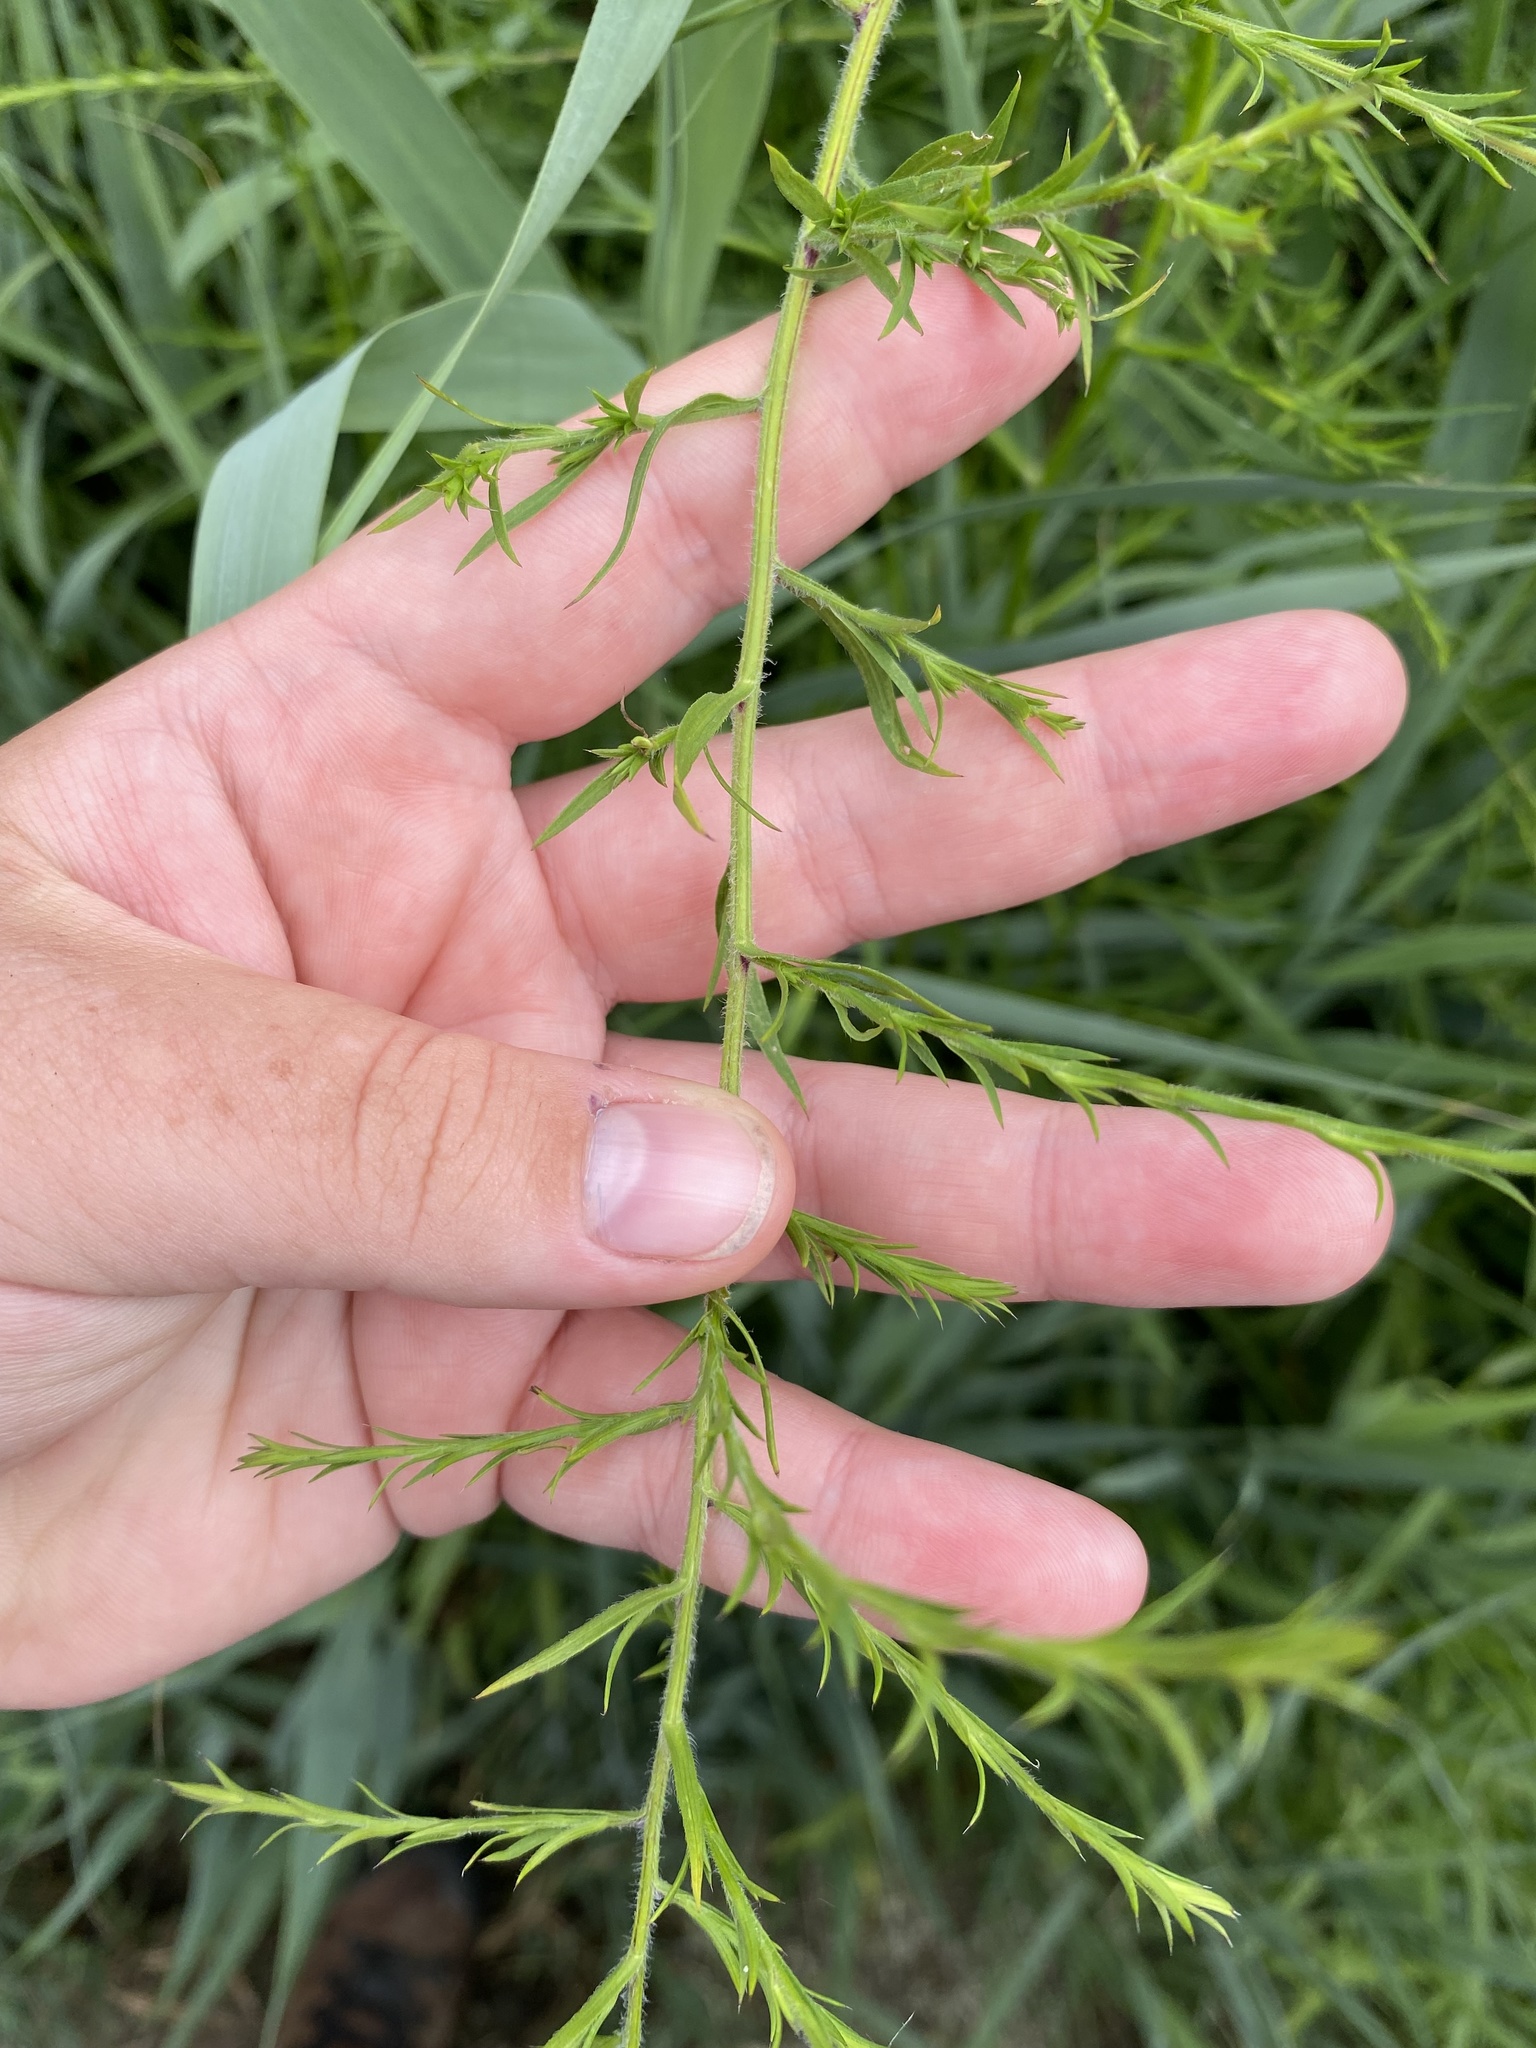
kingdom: Plantae
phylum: Tracheophyta
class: Magnoliopsida
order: Asterales
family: Asteraceae
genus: Symphyotrichum
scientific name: Symphyotrichum pilosum
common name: Awl aster
